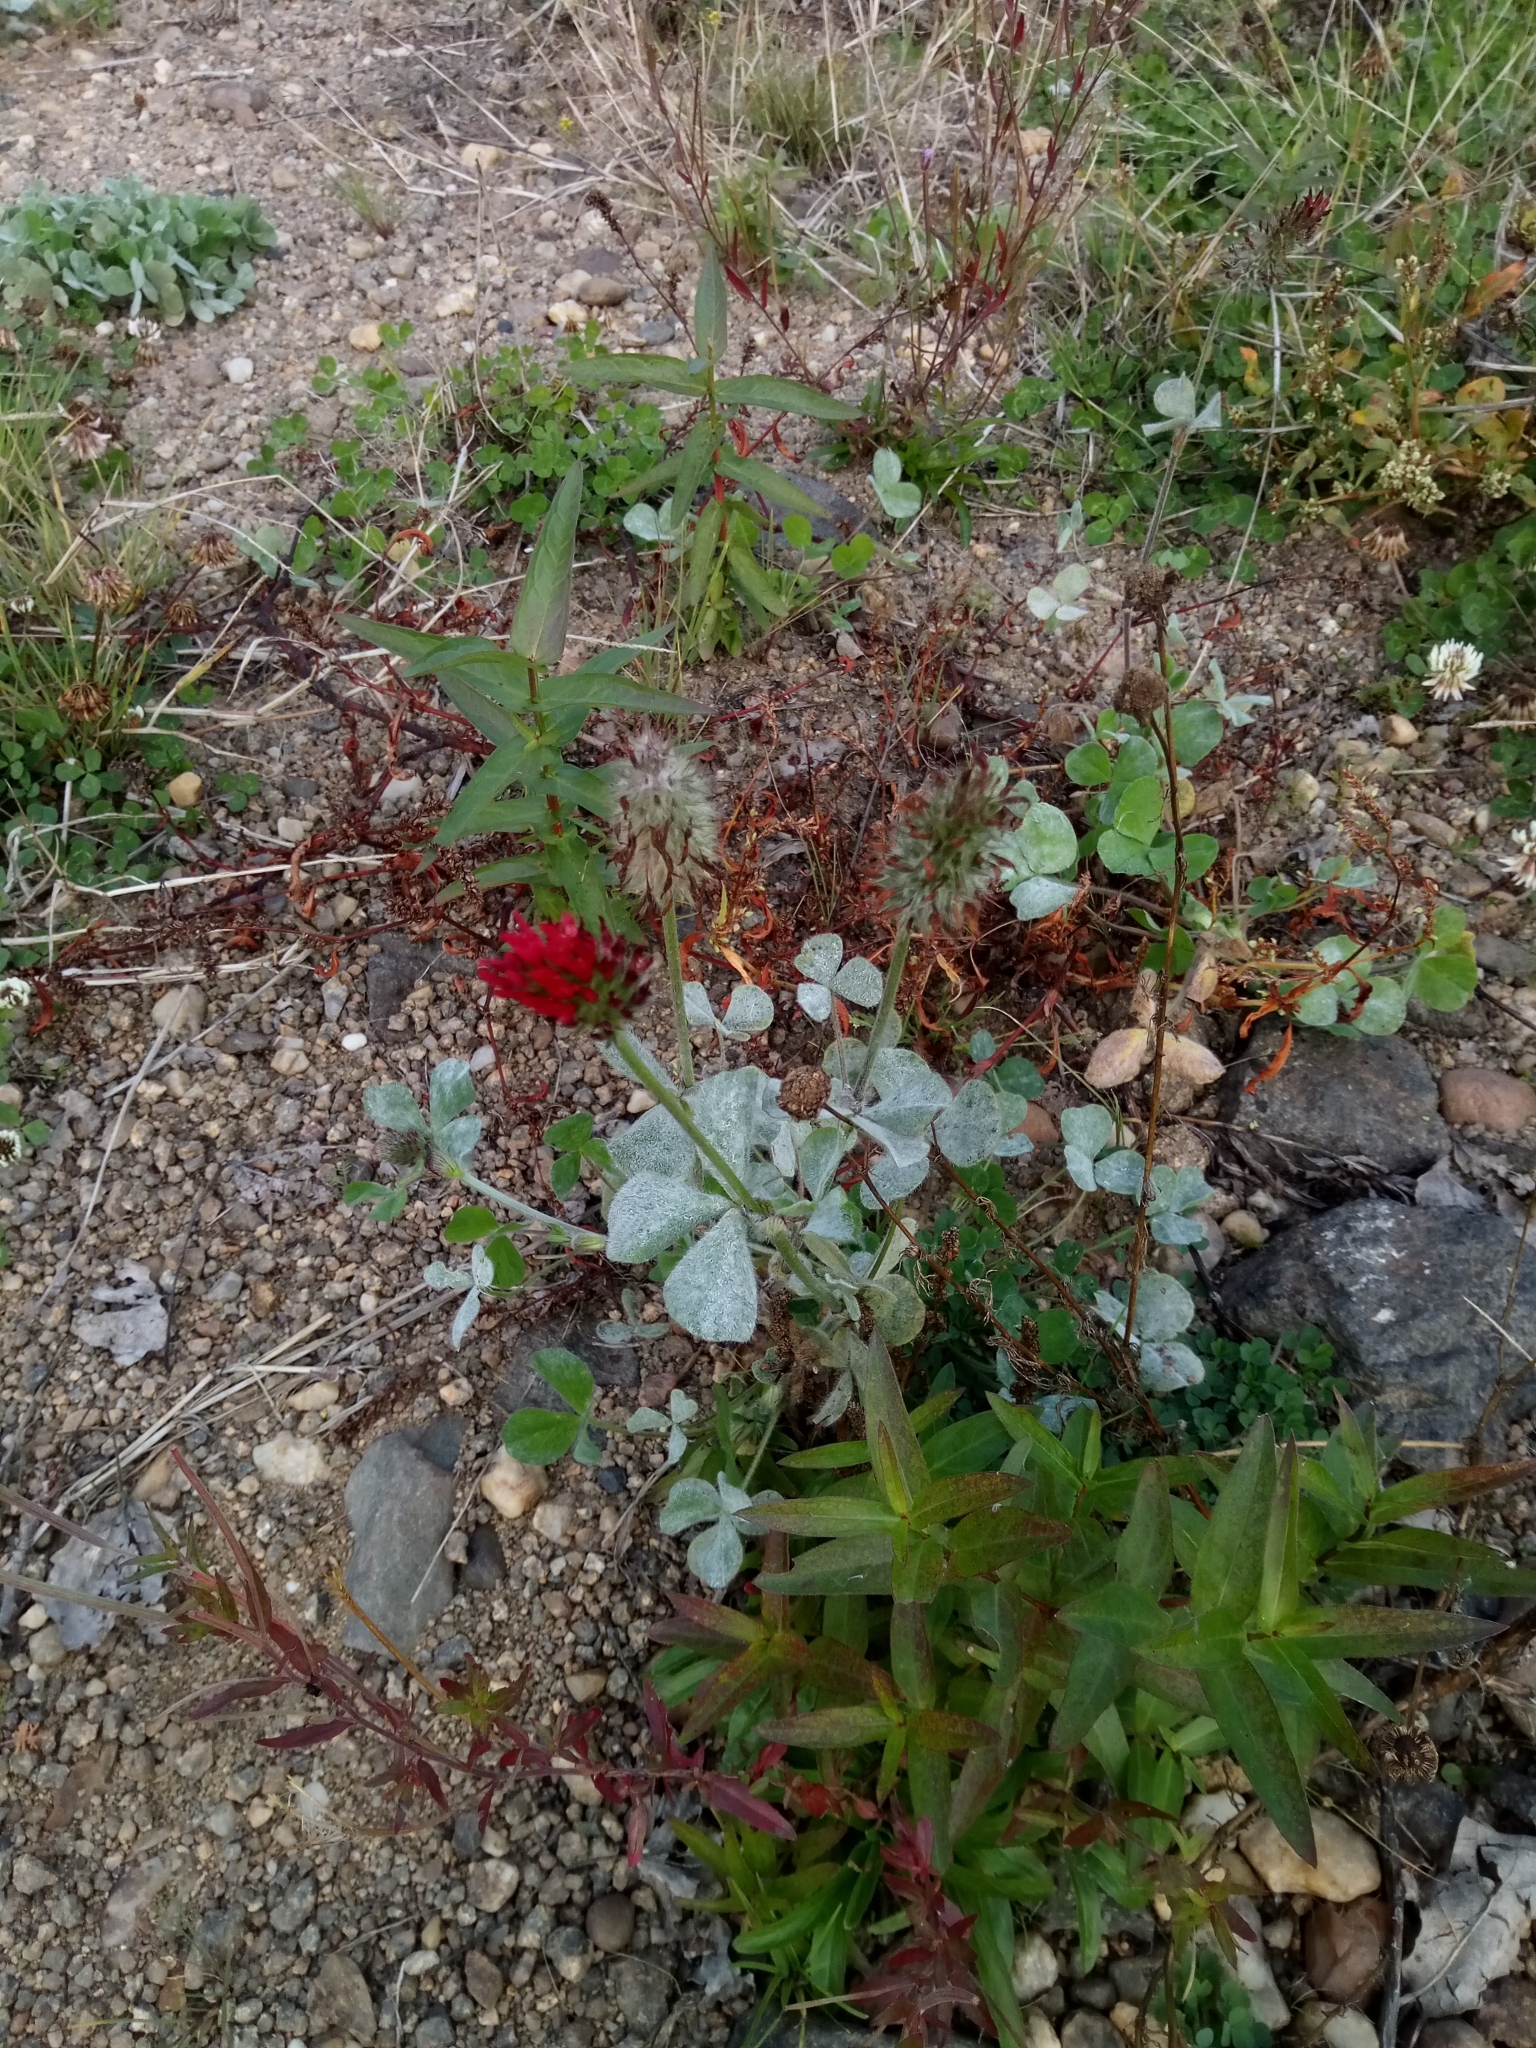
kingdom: Plantae
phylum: Tracheophyta
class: Magnoliopsida
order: Fabales
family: Fabaceae
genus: Trifolium
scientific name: Trifolium incarnatum
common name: Crimson clover
